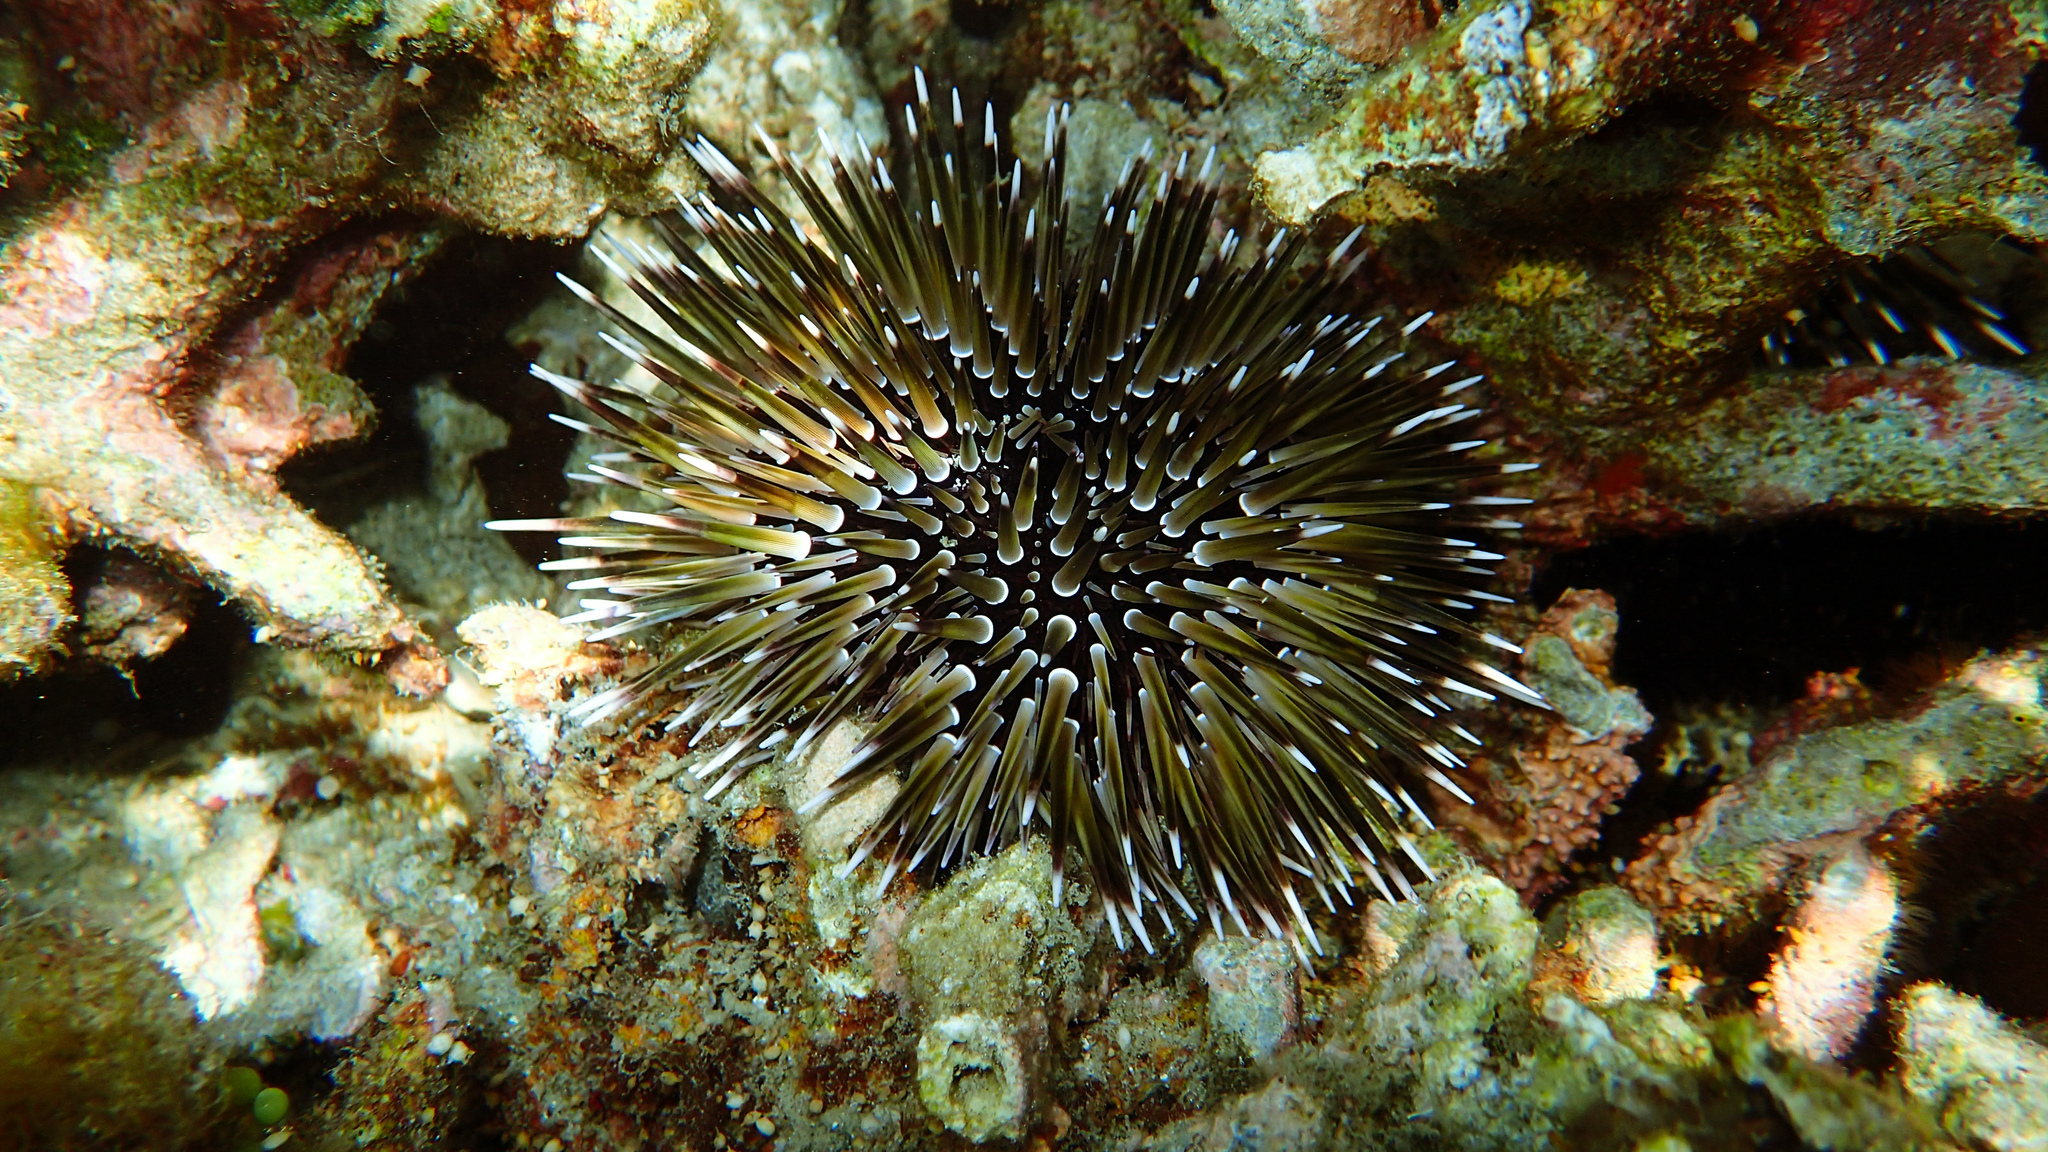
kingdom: Animalia
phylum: Echinodermata
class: Echinoidea
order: Camarodonta
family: Echinometridae
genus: Echinometra
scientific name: Echinometra mathaei
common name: Rock-boring urchin
